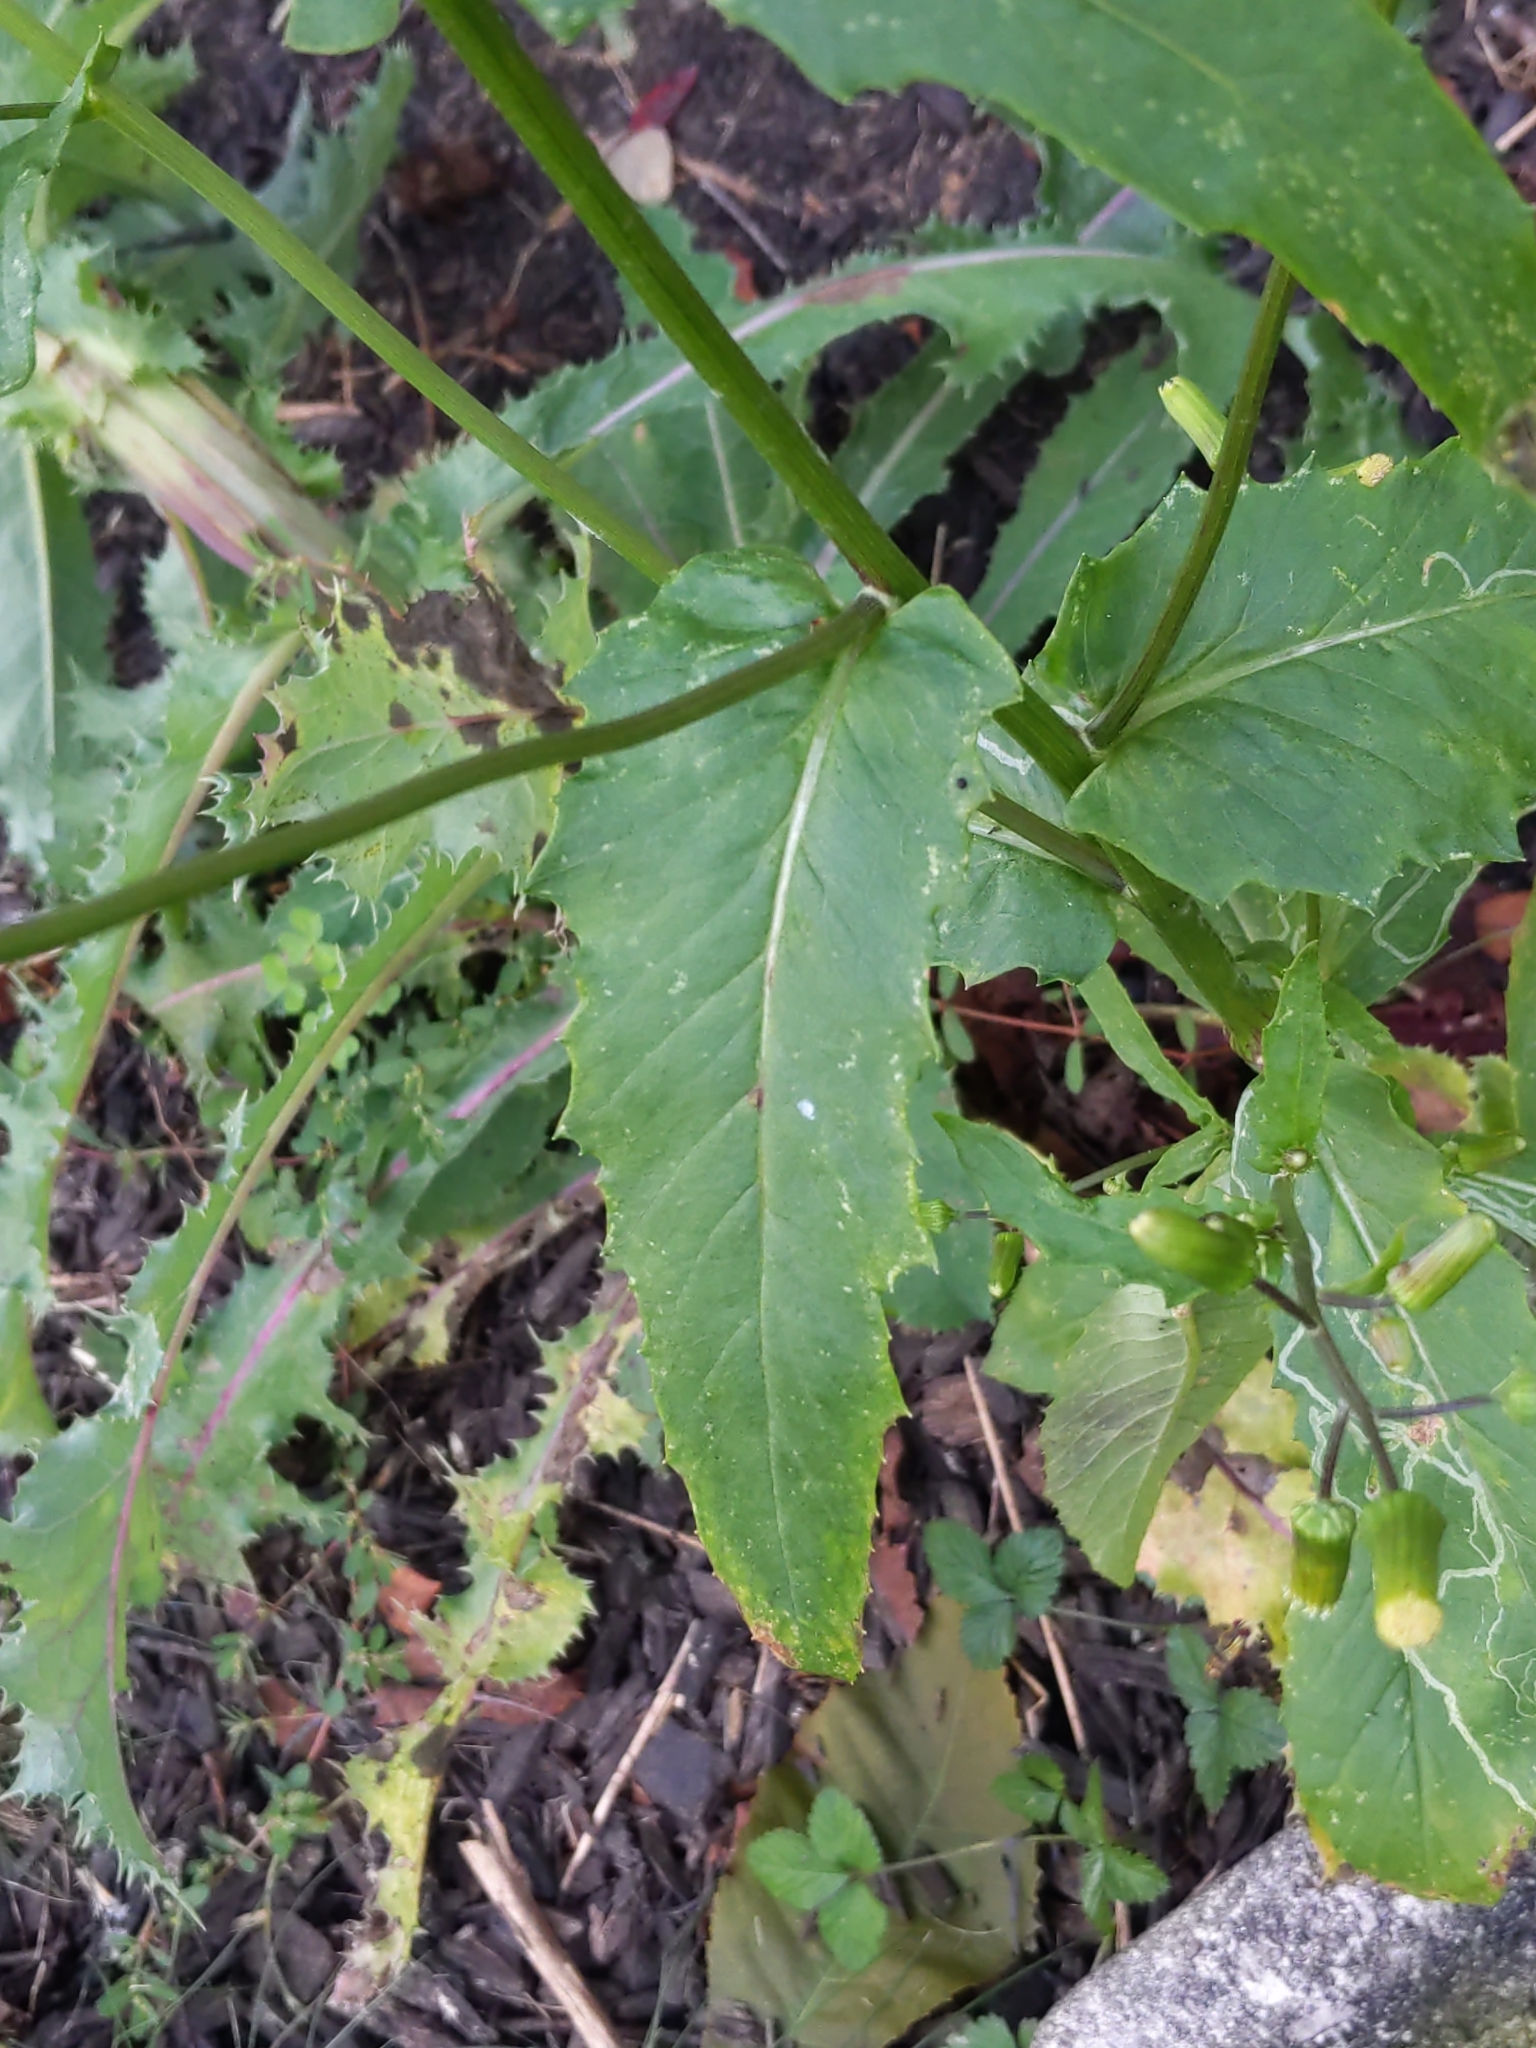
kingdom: Plantae
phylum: Tracheophyta
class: Magnoliopsida
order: Asterales
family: Asteraceae
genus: Erechtites
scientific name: Erechtites hieraciifolius
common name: American burnweed
